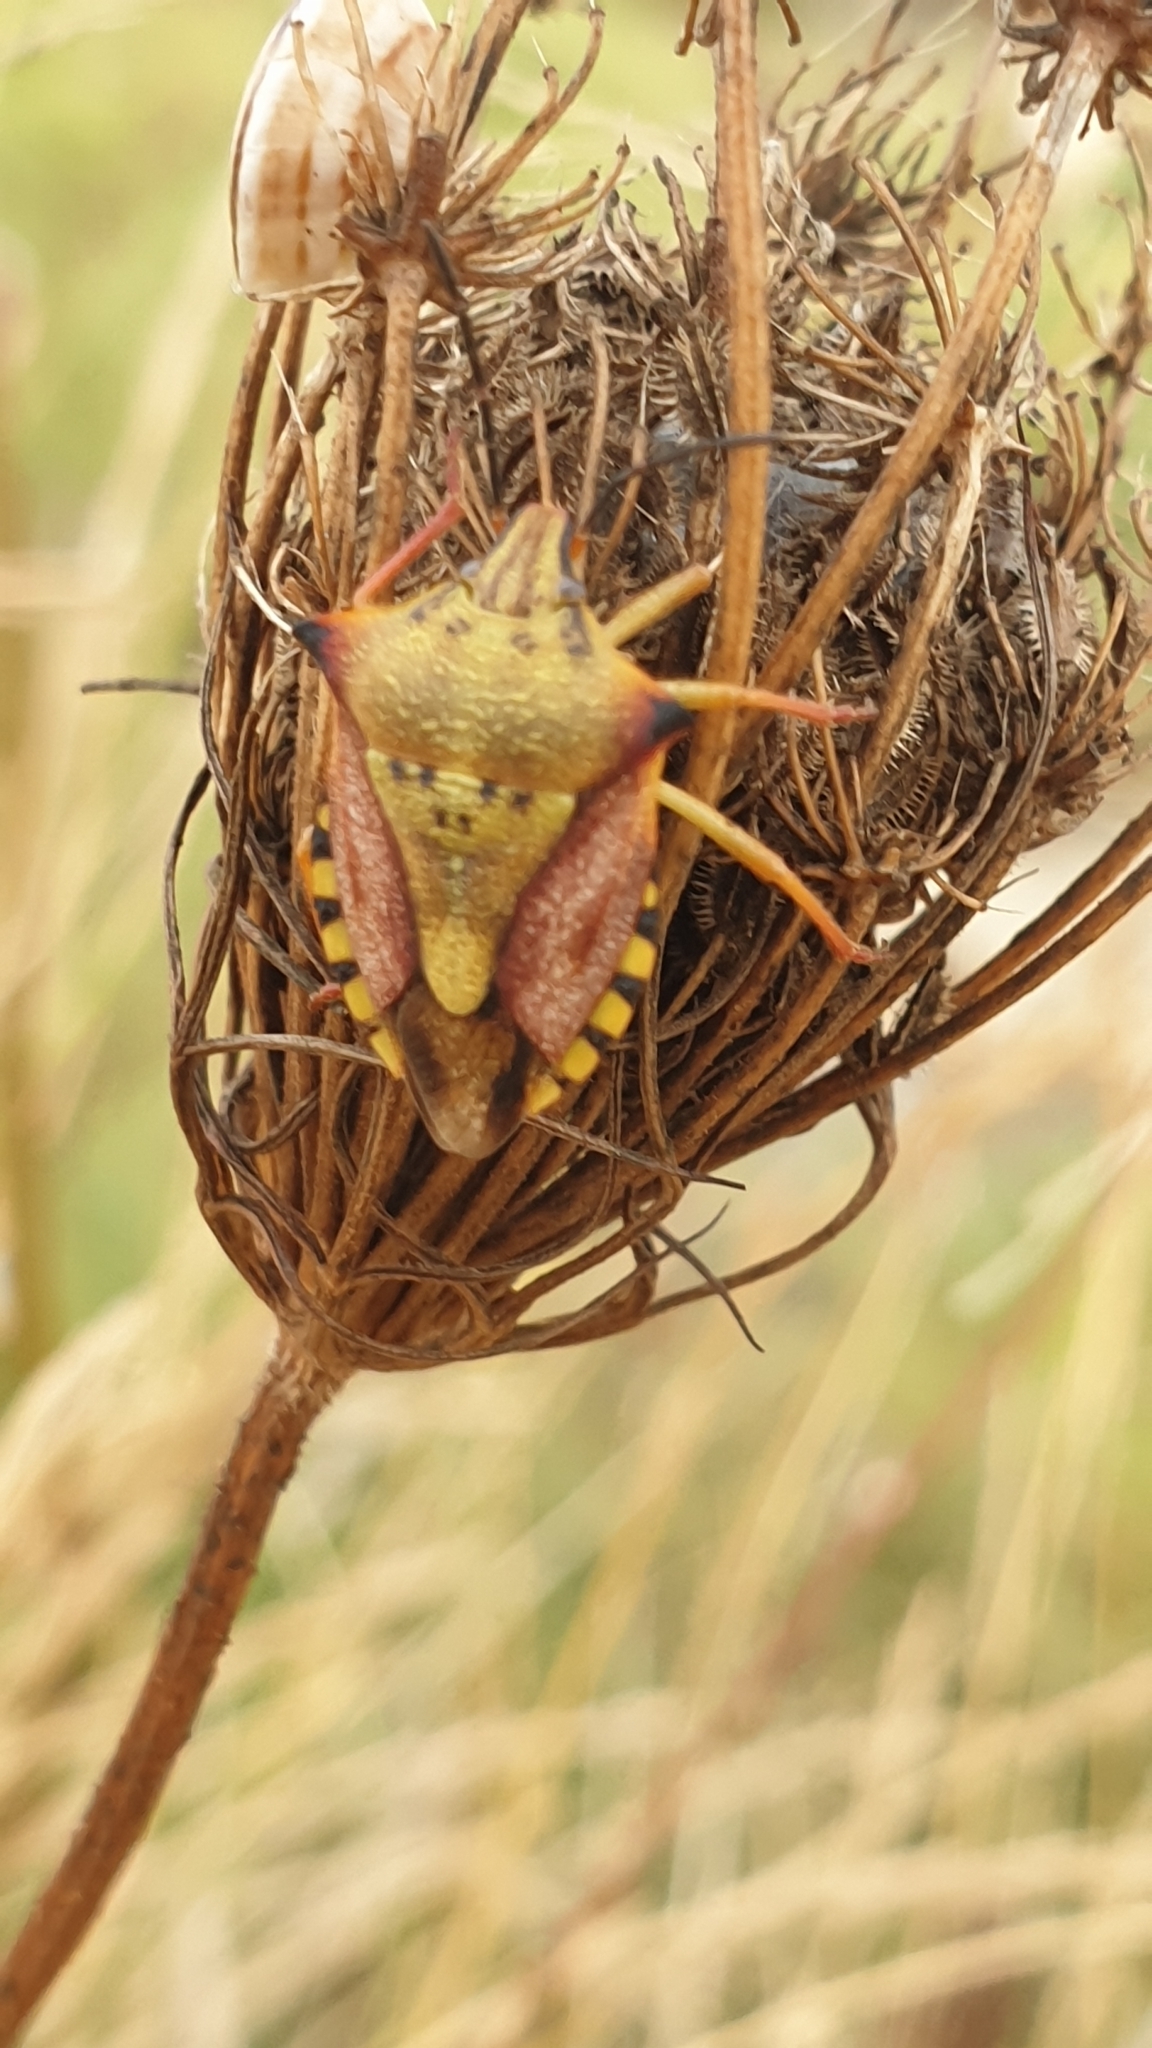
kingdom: Animalia
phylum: Arthropoda
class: Insecta
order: Hemiptera
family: Pentatomidae
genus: Carpocoris
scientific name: Carpocoris mediterraneus
